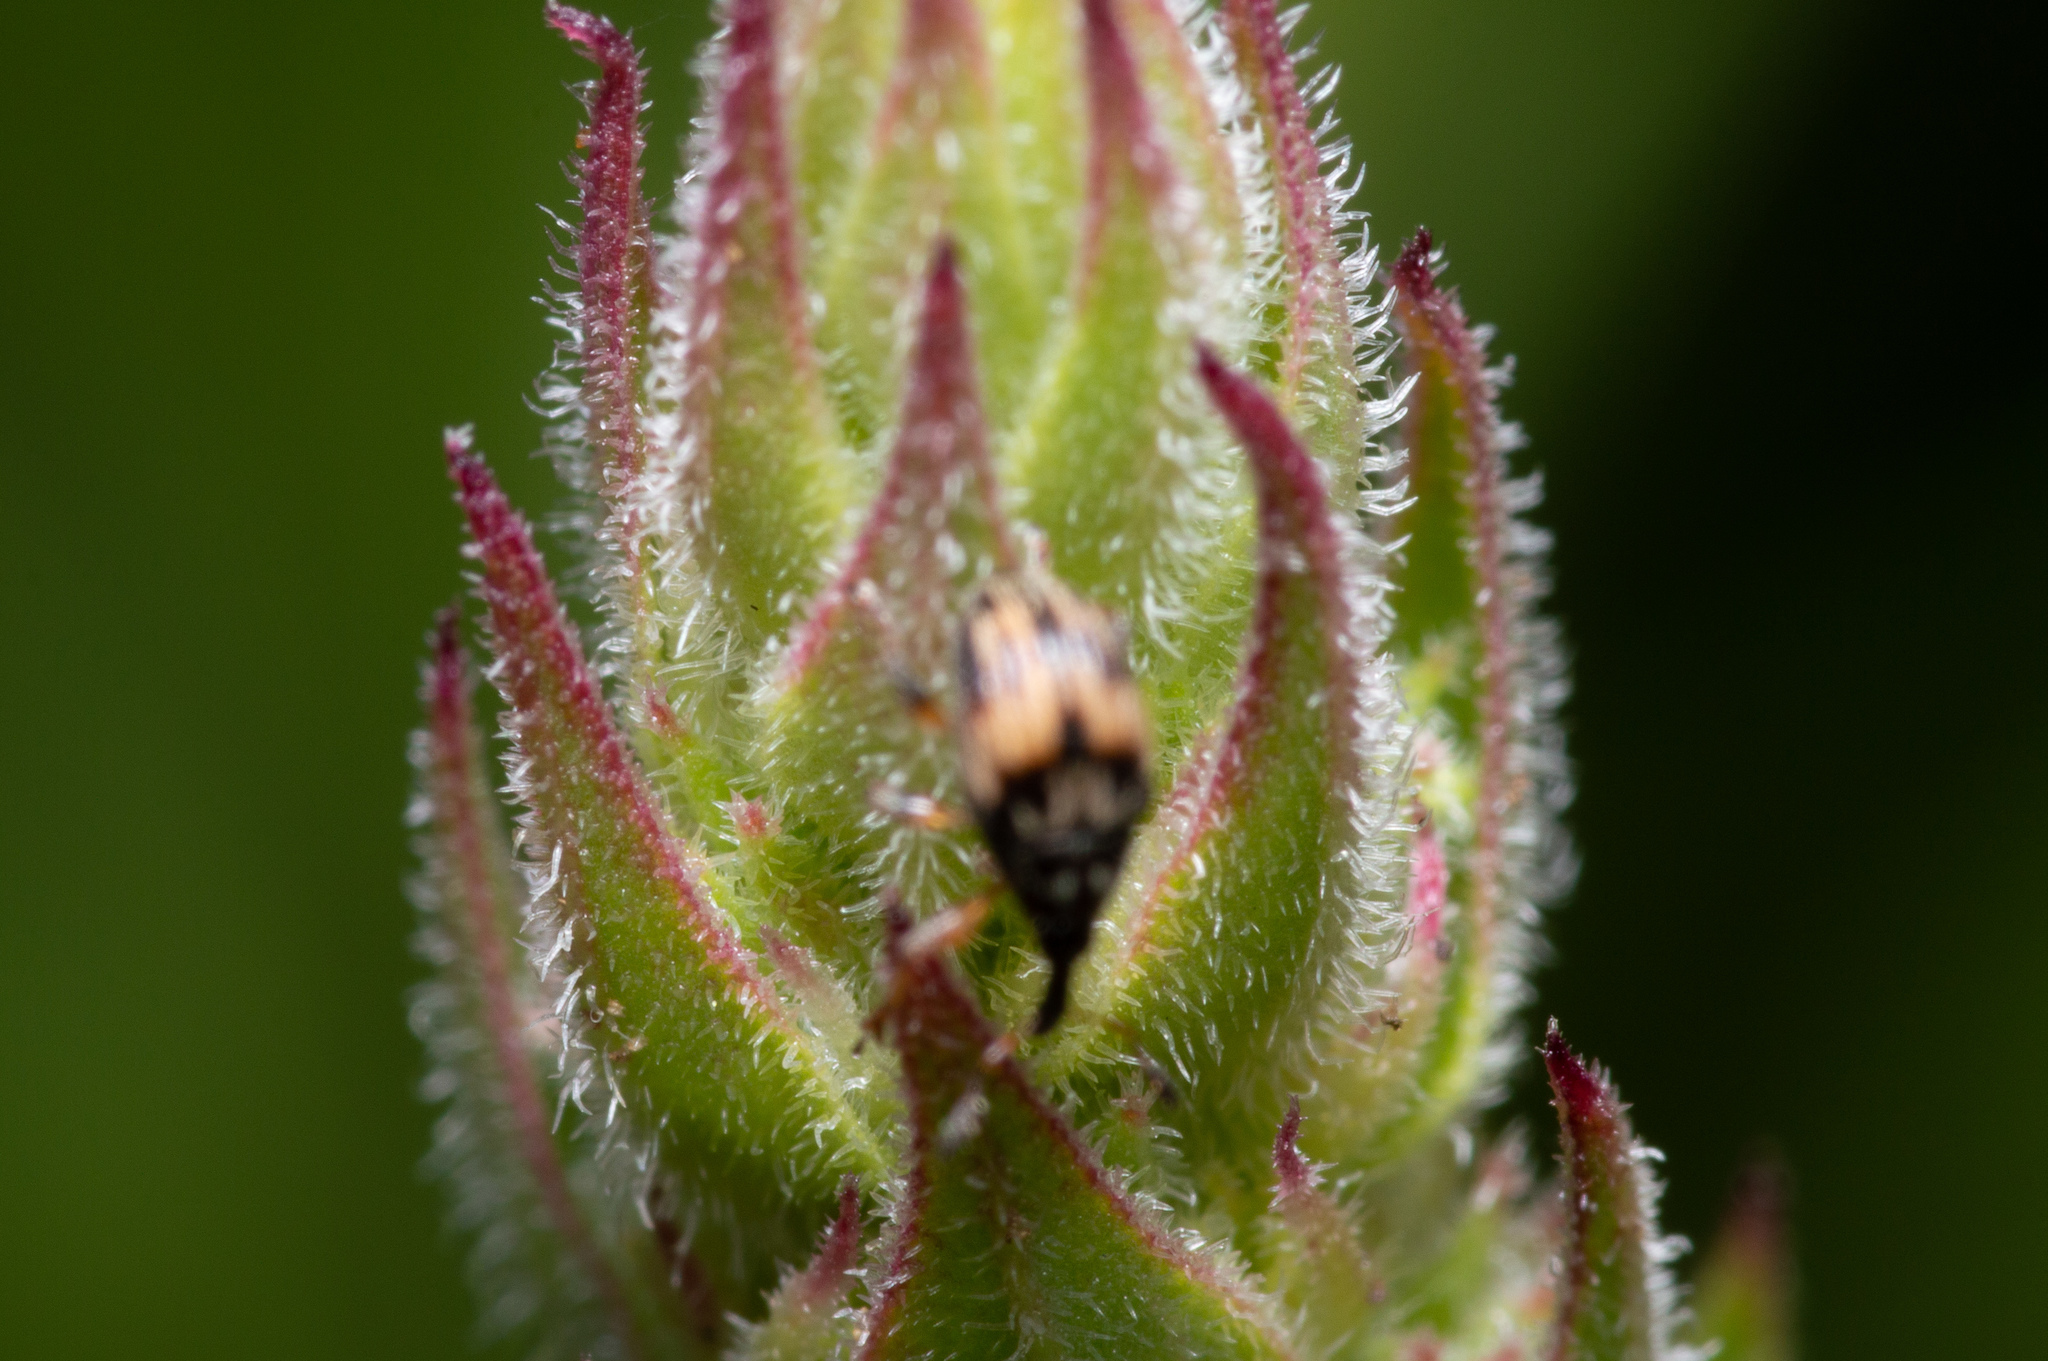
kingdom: Animalia
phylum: Arthropoda
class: Insecta
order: Coleoptera
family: Brentidae
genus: Nanophyes
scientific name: Nanophyes marmoratus
